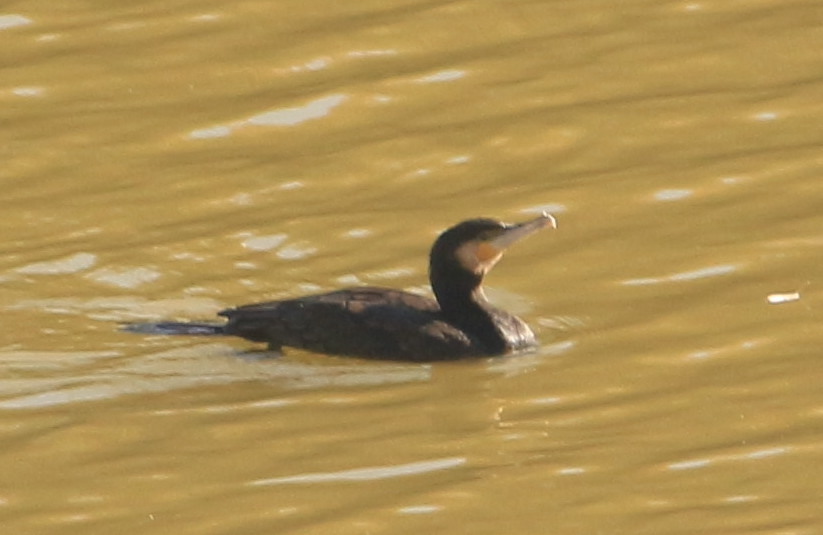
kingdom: Animalia
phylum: Chordata
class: Aves
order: Suliformes
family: Phalacrocoracidae
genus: Phalacrocorax
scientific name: Phalacrocorax carbo
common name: Great cormorant
